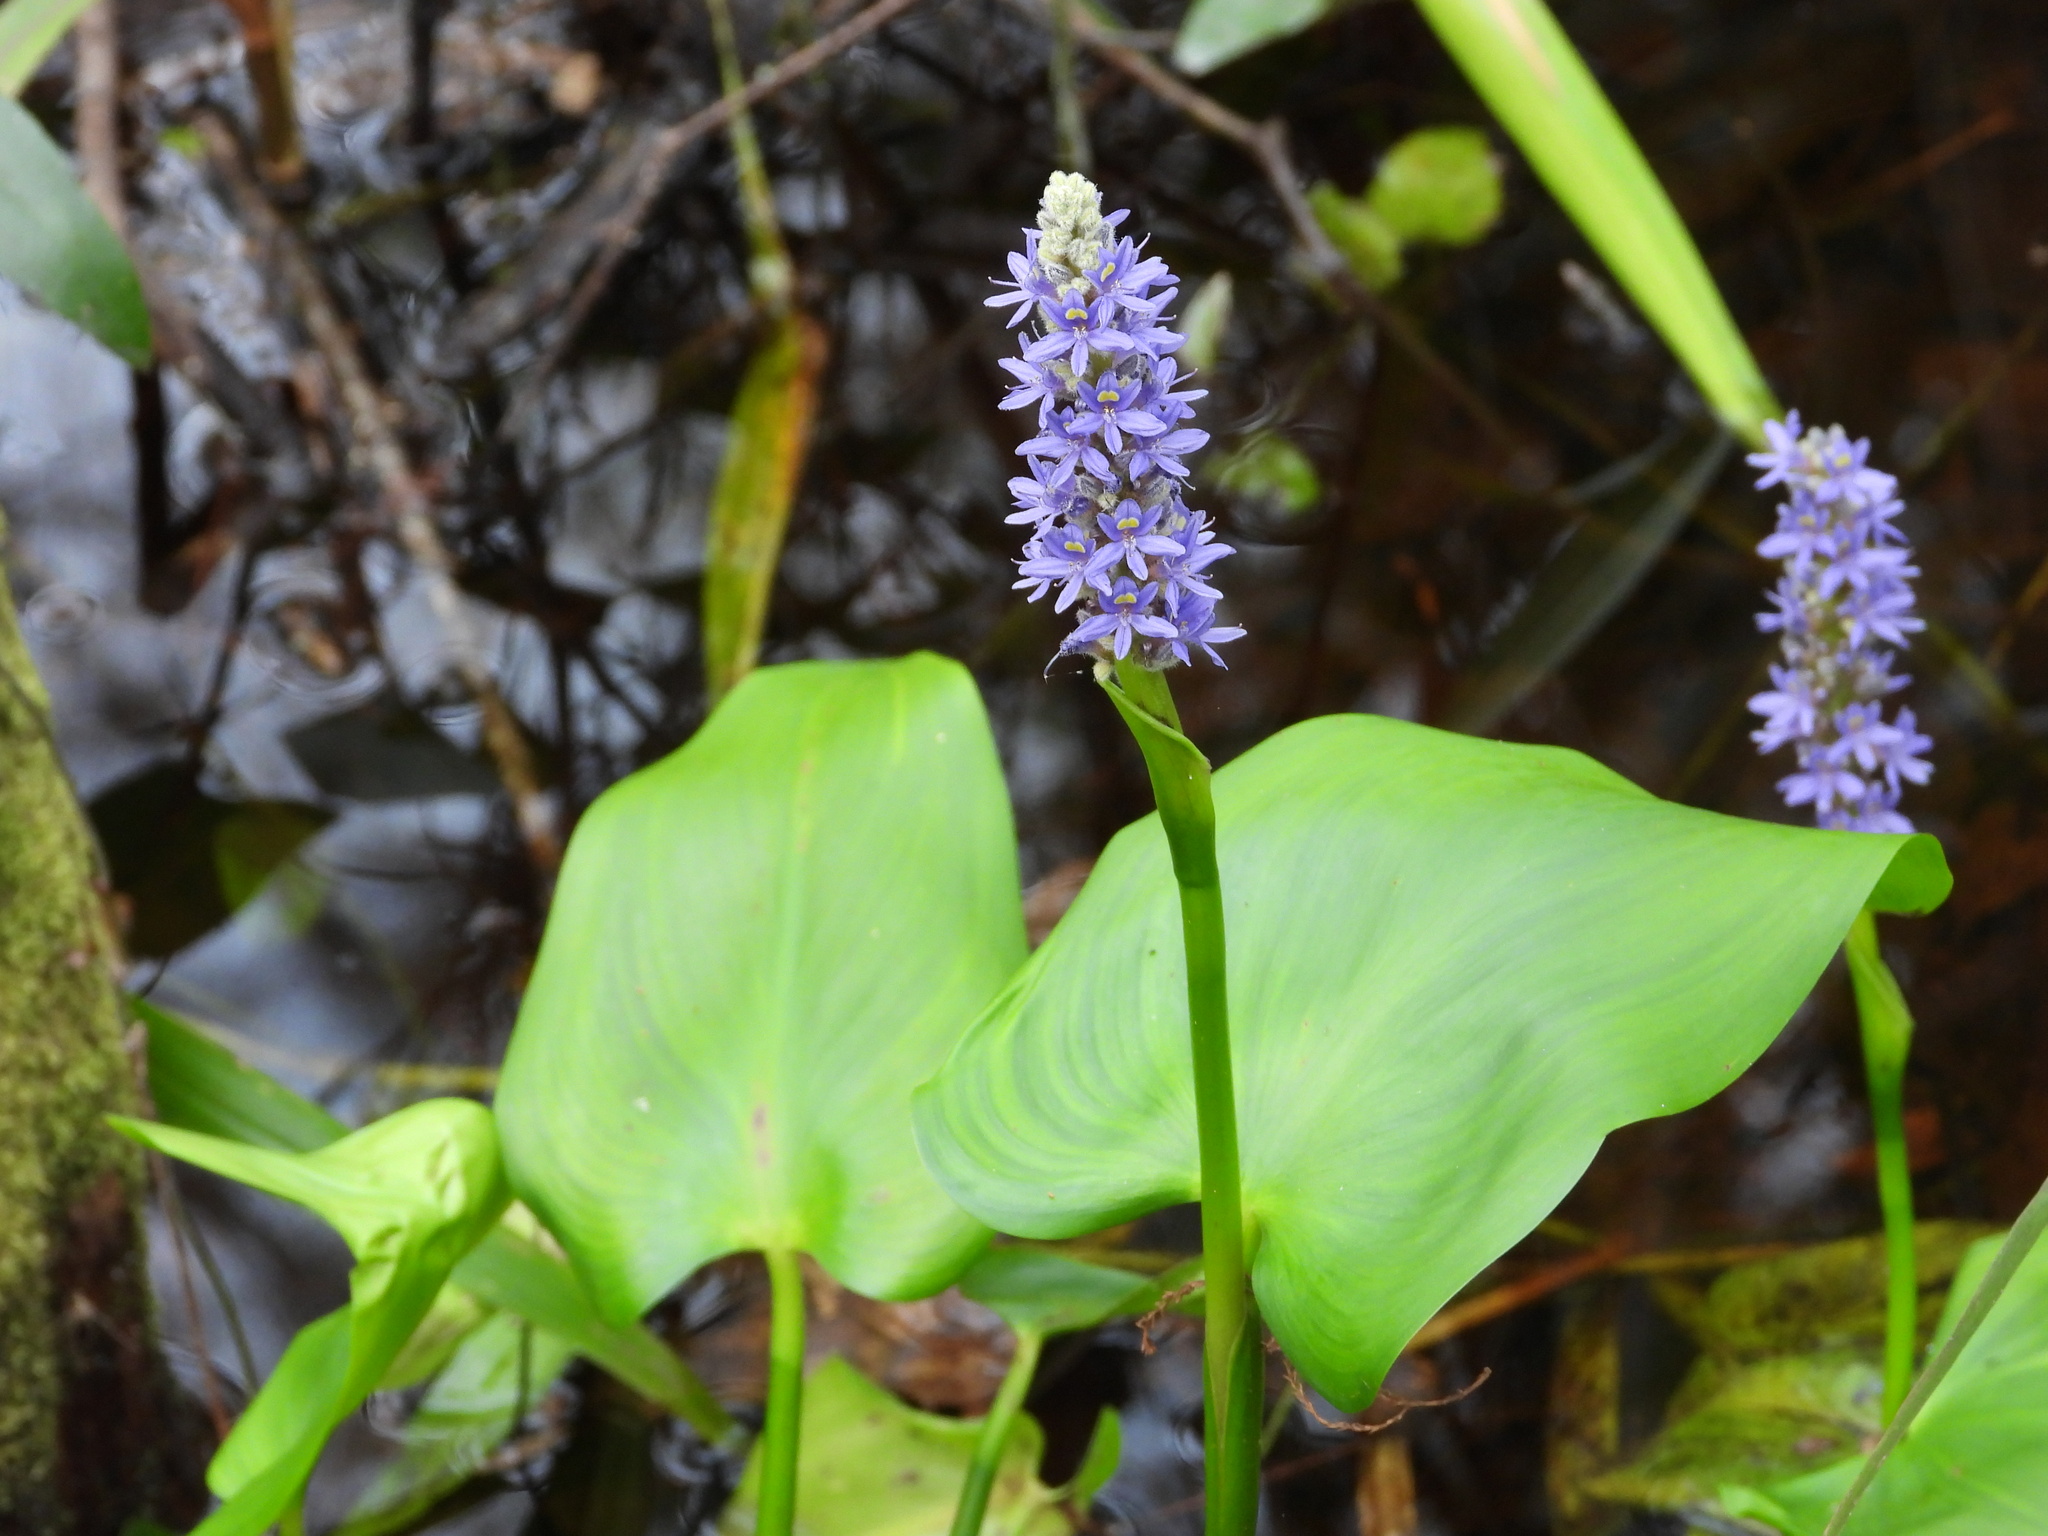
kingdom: Plantae
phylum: Tracheophyta
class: Liliopsida
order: Commelinales
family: Pontederiaceae
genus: Pontederia
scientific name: Pontederia cordata
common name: Pickerelweed
